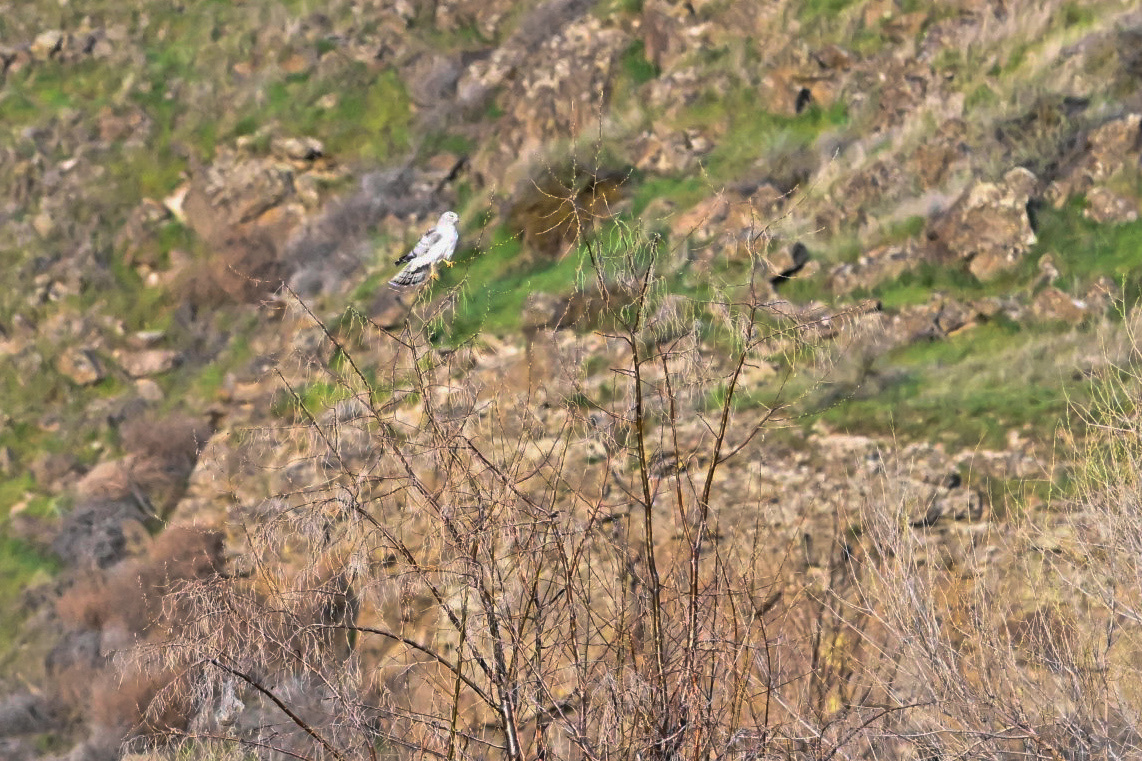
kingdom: Animalia
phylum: Chordata
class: Aves
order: Accipitriformes
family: Accipitridae
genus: Circus
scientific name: Circus cyaneus
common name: Hen harrier
